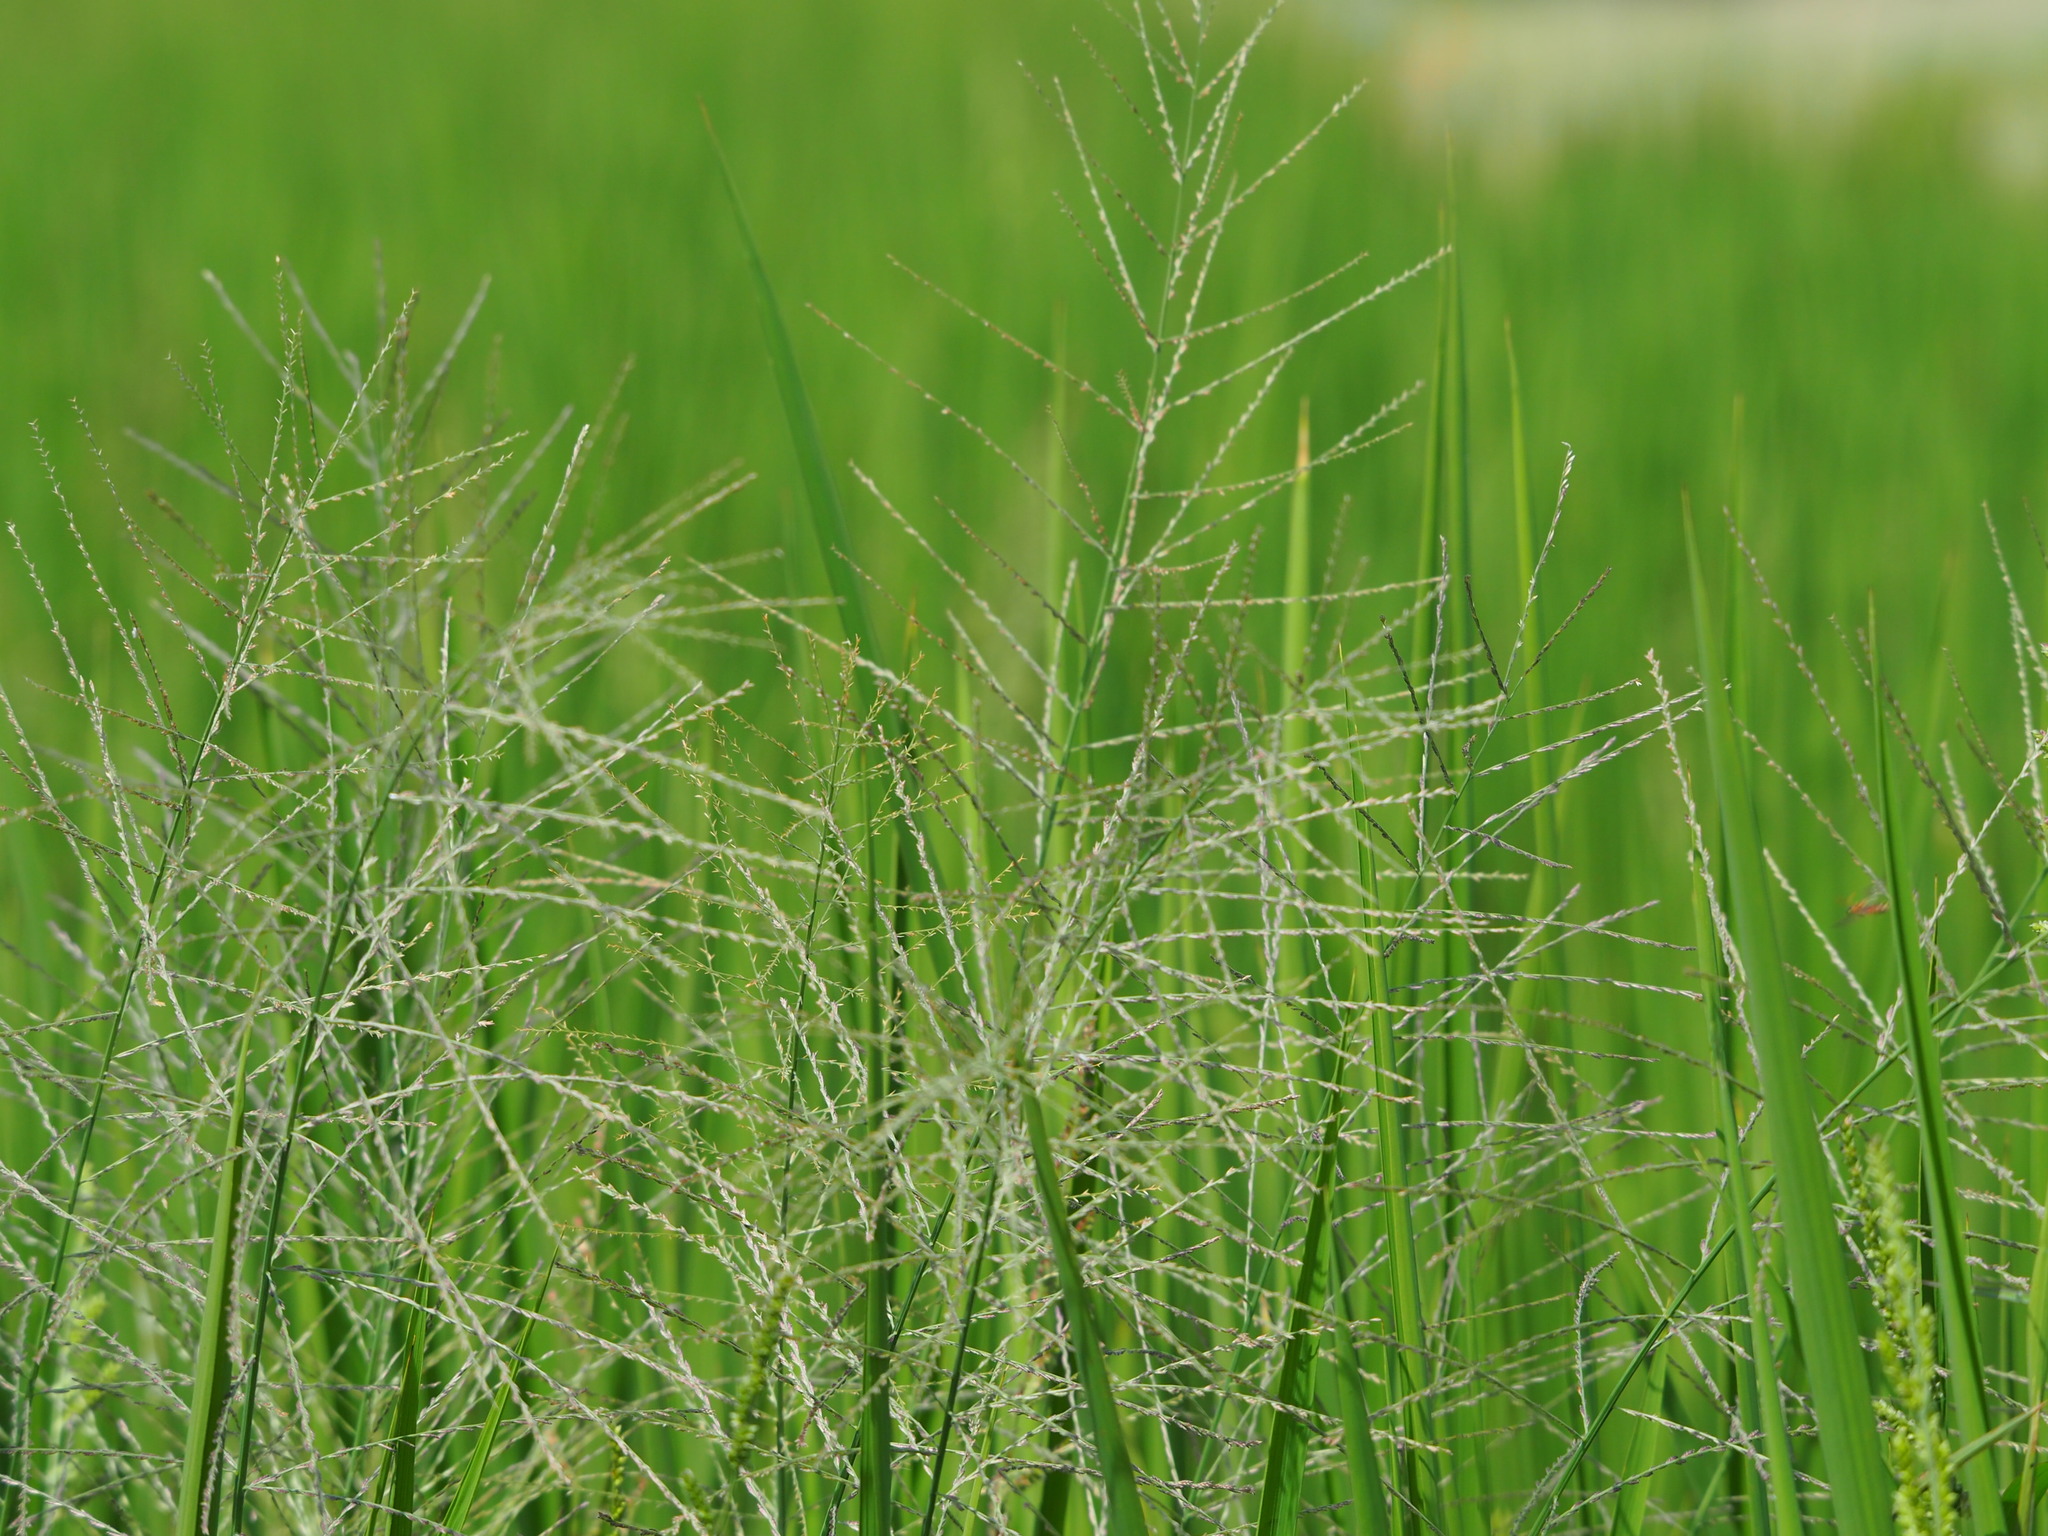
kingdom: Plantae
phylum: Tracheophyta
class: Liliopsida
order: Poales
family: Poaceae
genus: Leptochloa
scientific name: Leptochloa chinensis
